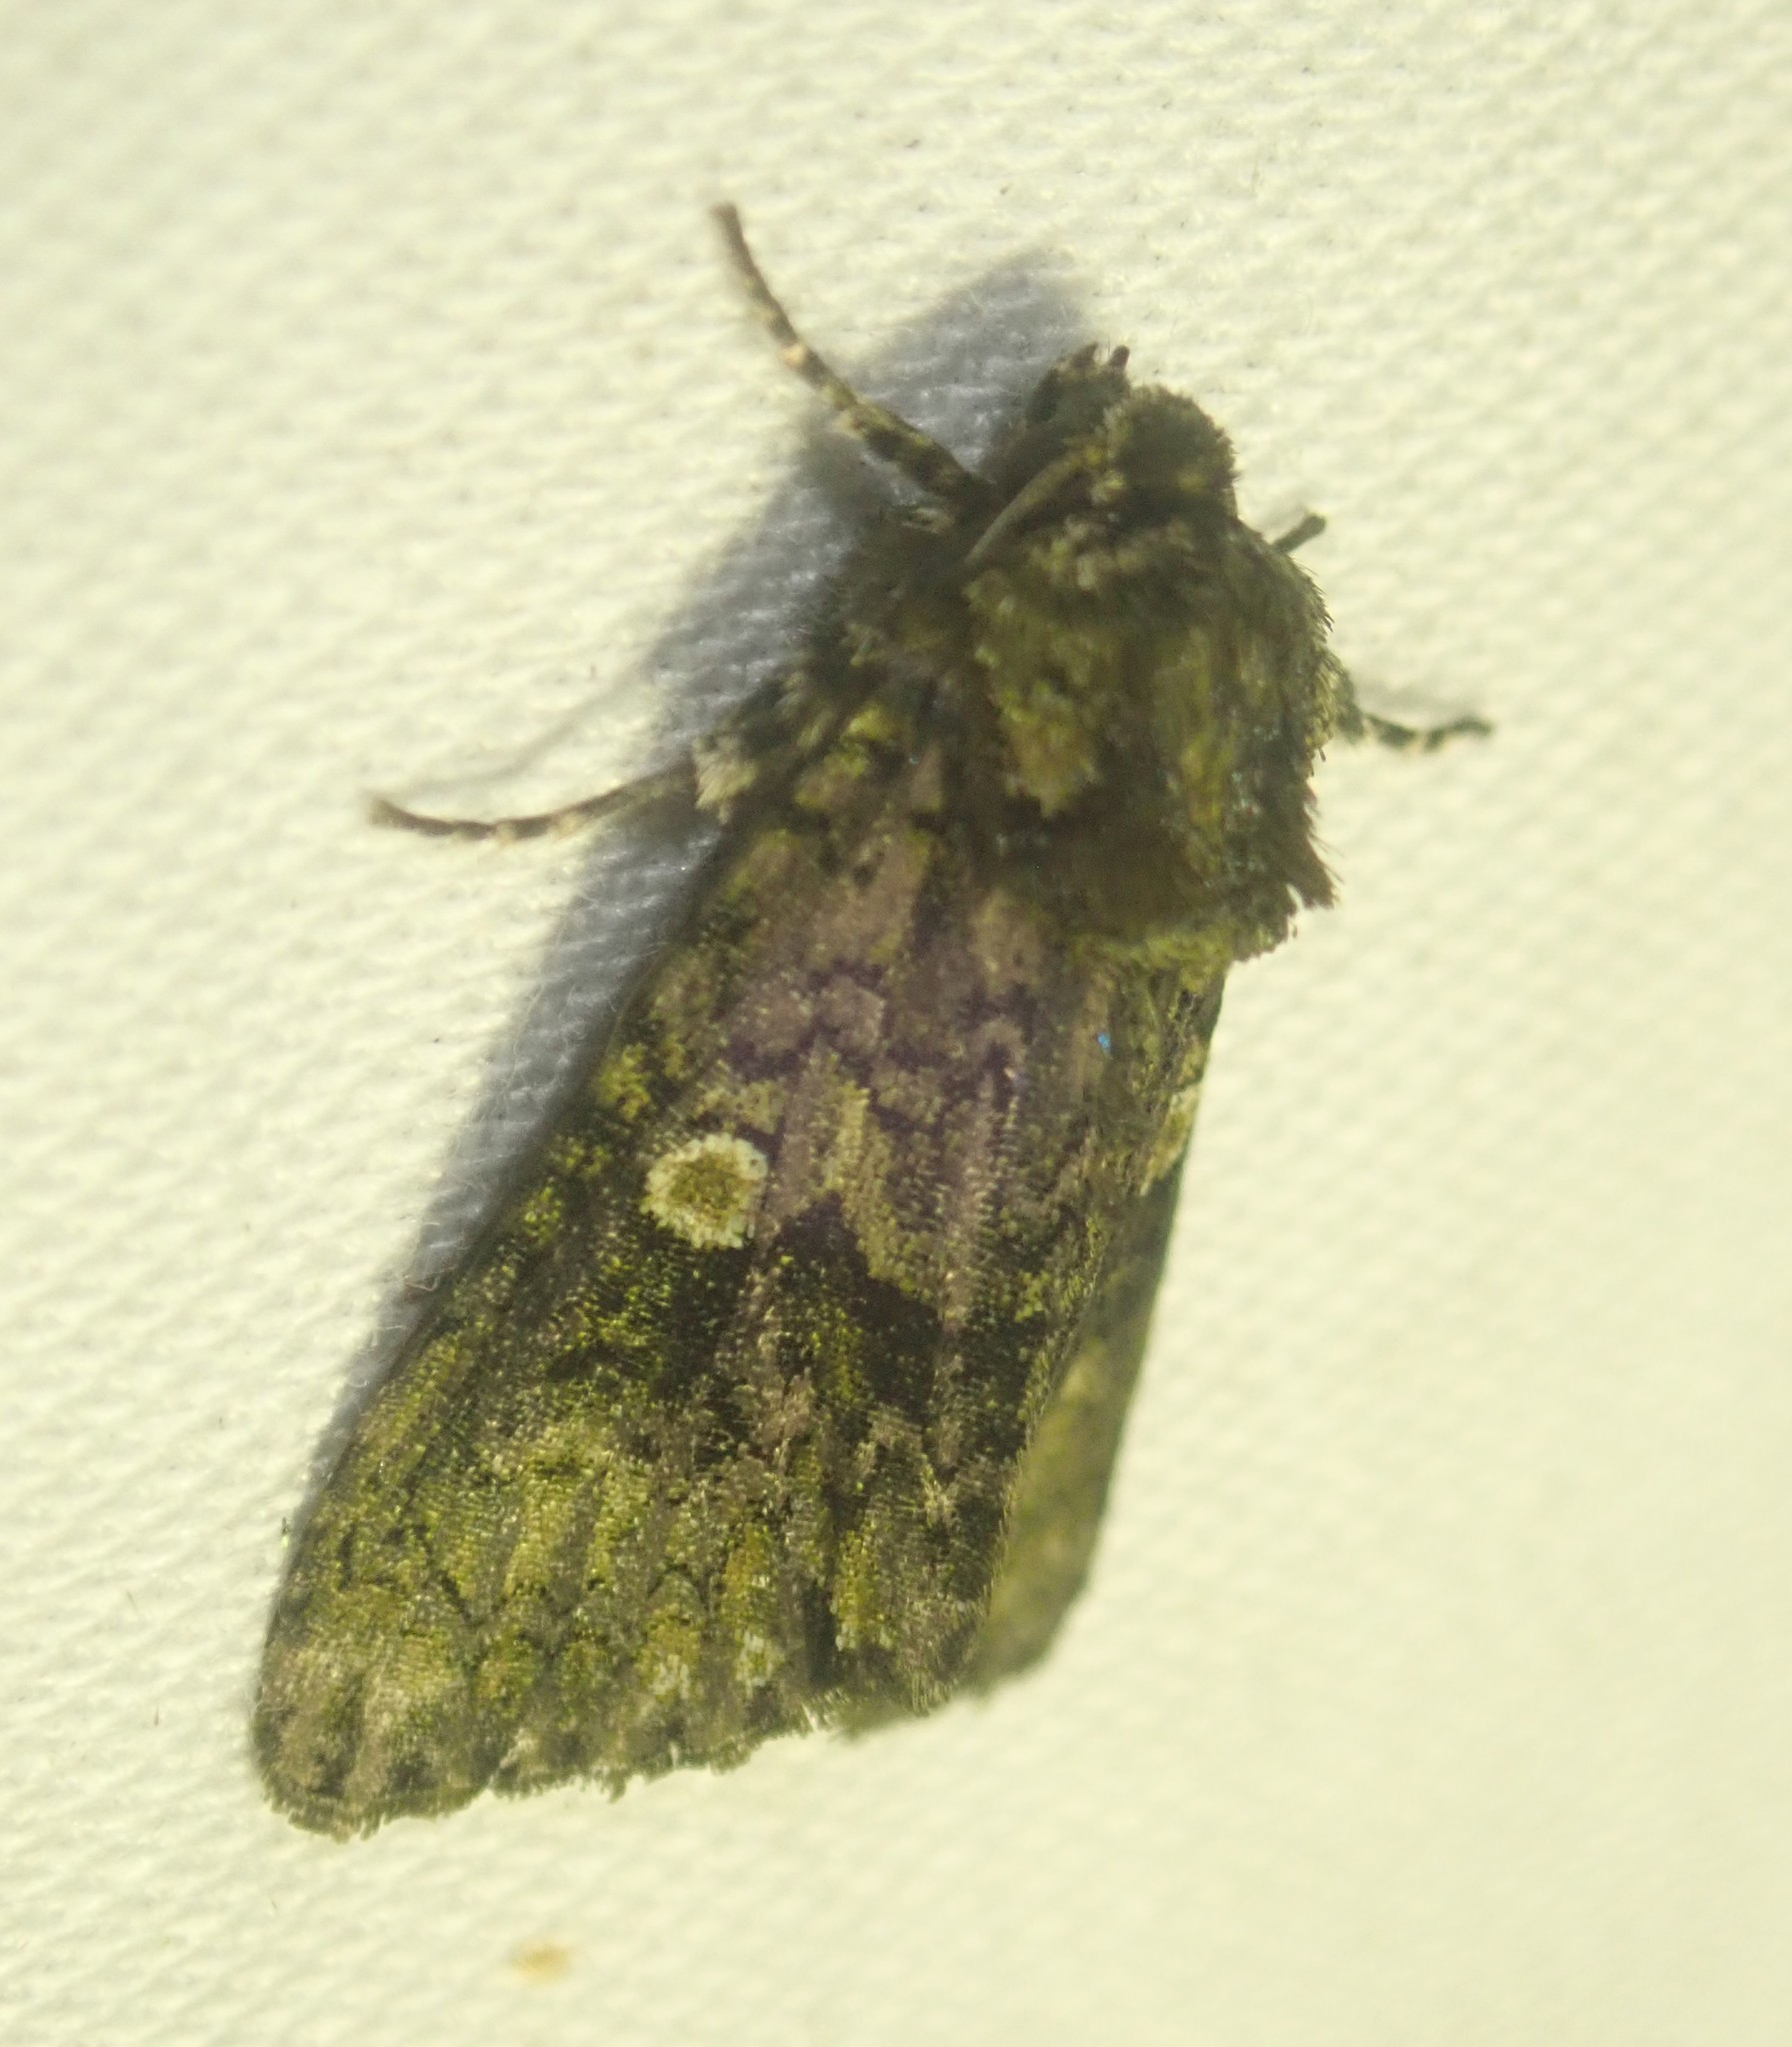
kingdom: Animalia
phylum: Arthropoda
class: Insecta
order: Lepidoptera
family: Noctuidae
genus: Craniophora
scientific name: Craniophora ligustri
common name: Coronet
